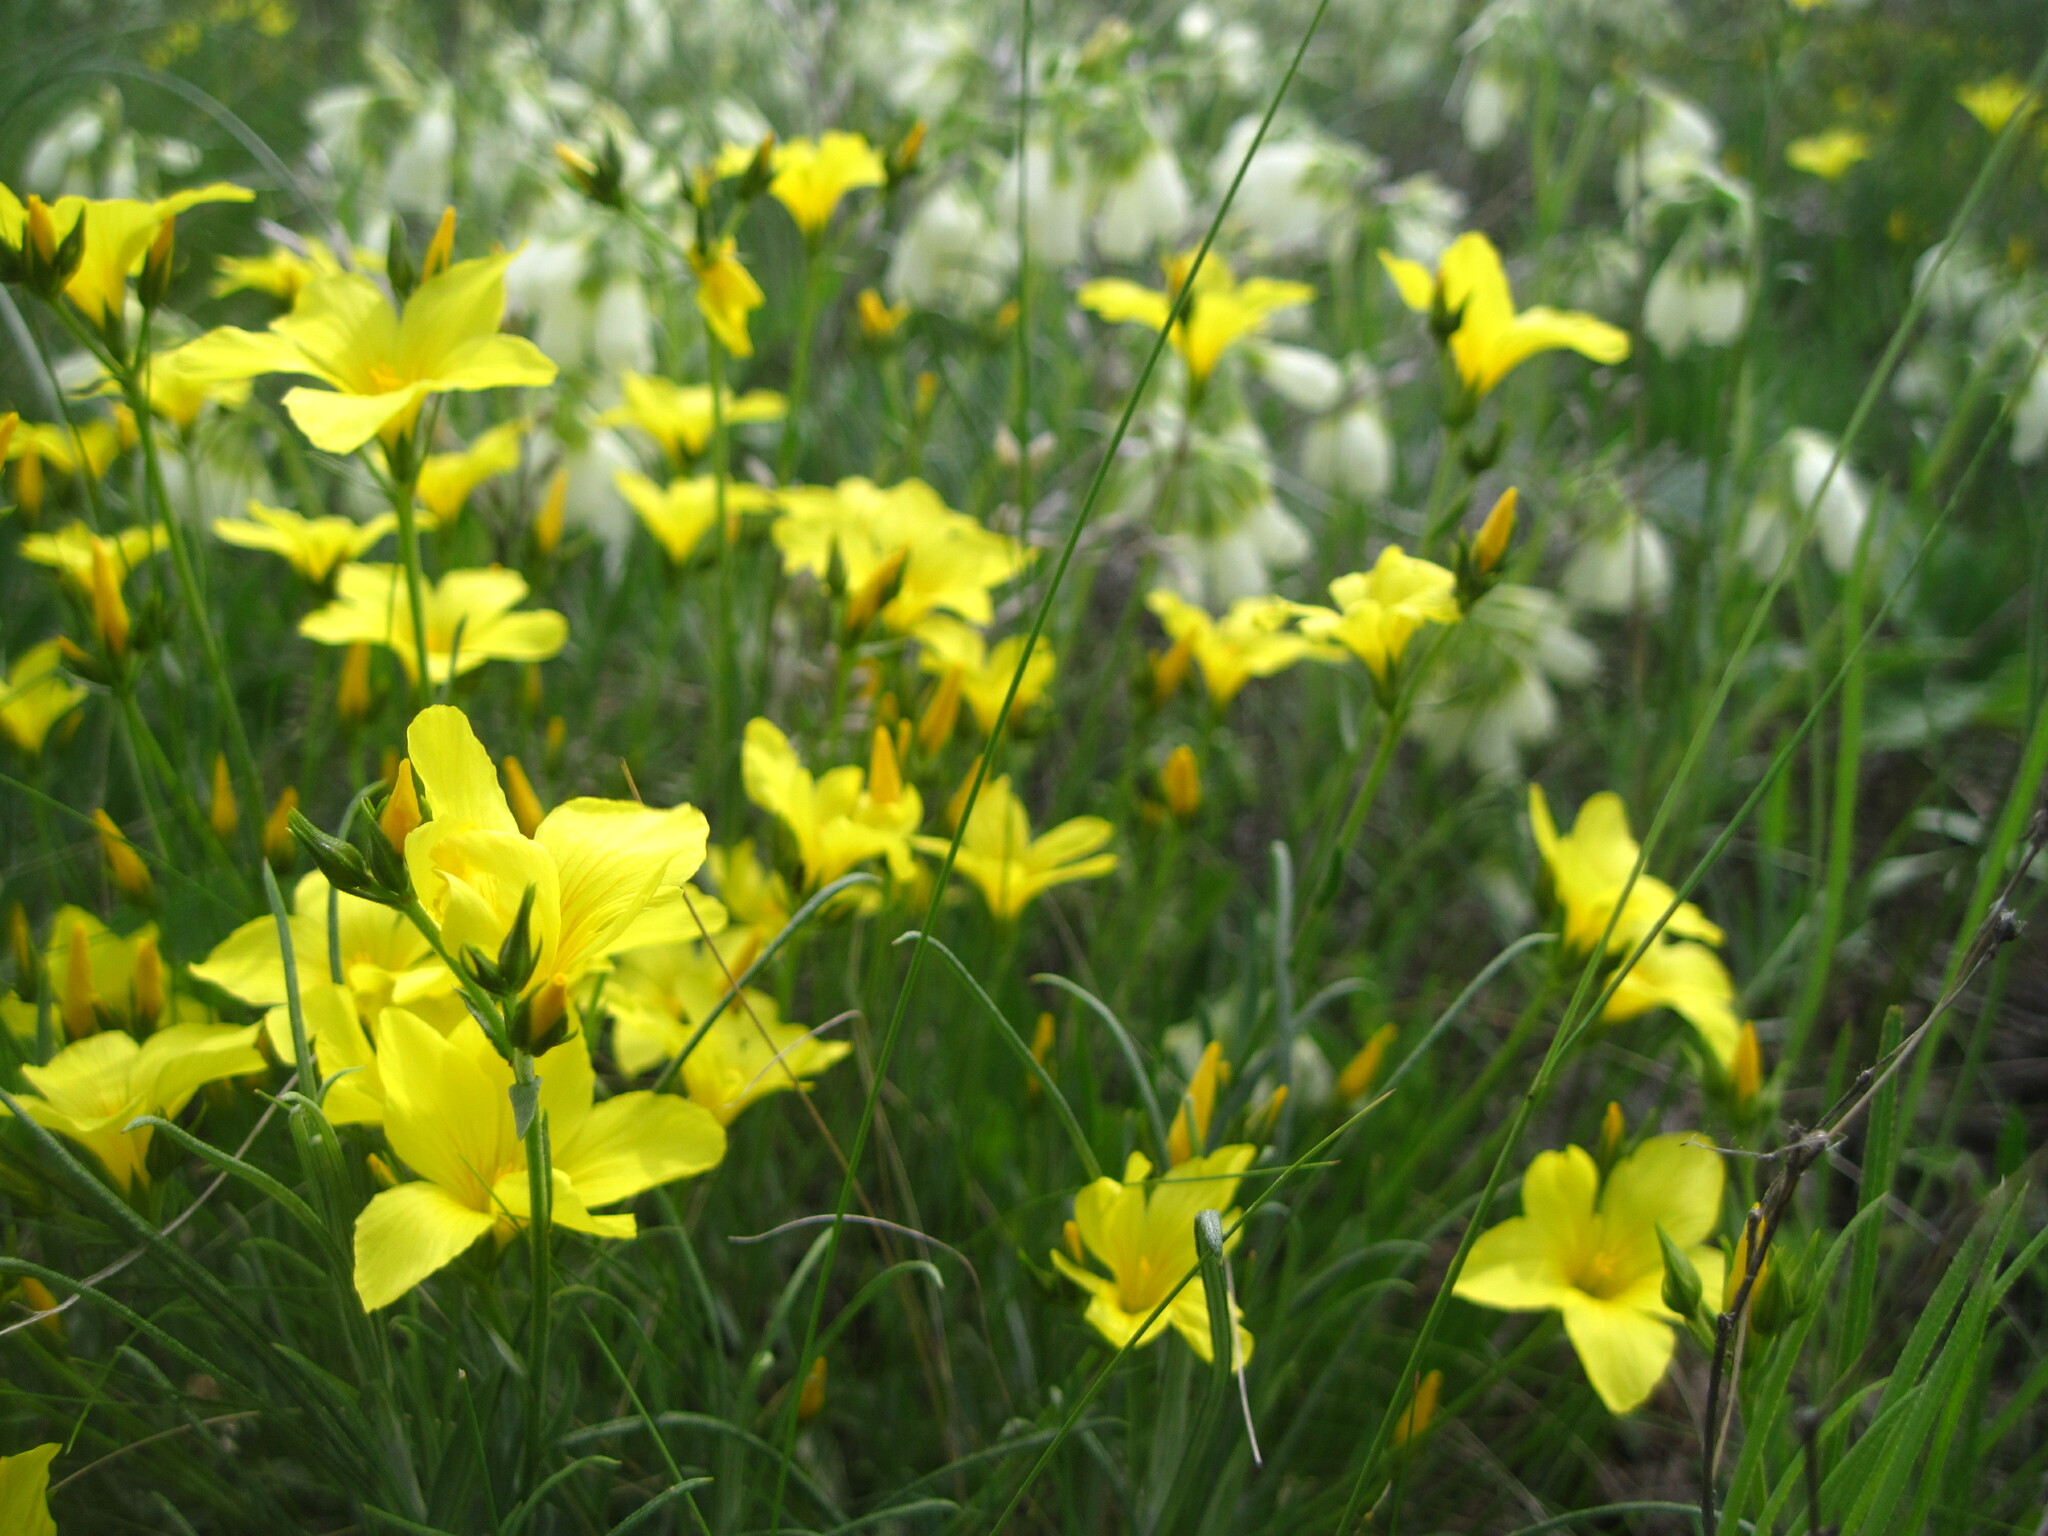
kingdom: Plantae
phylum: Tracheophyta
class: Magnoliopsida
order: Malpighiales
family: Linaceae
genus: Linum
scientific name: Linum pallasianum
